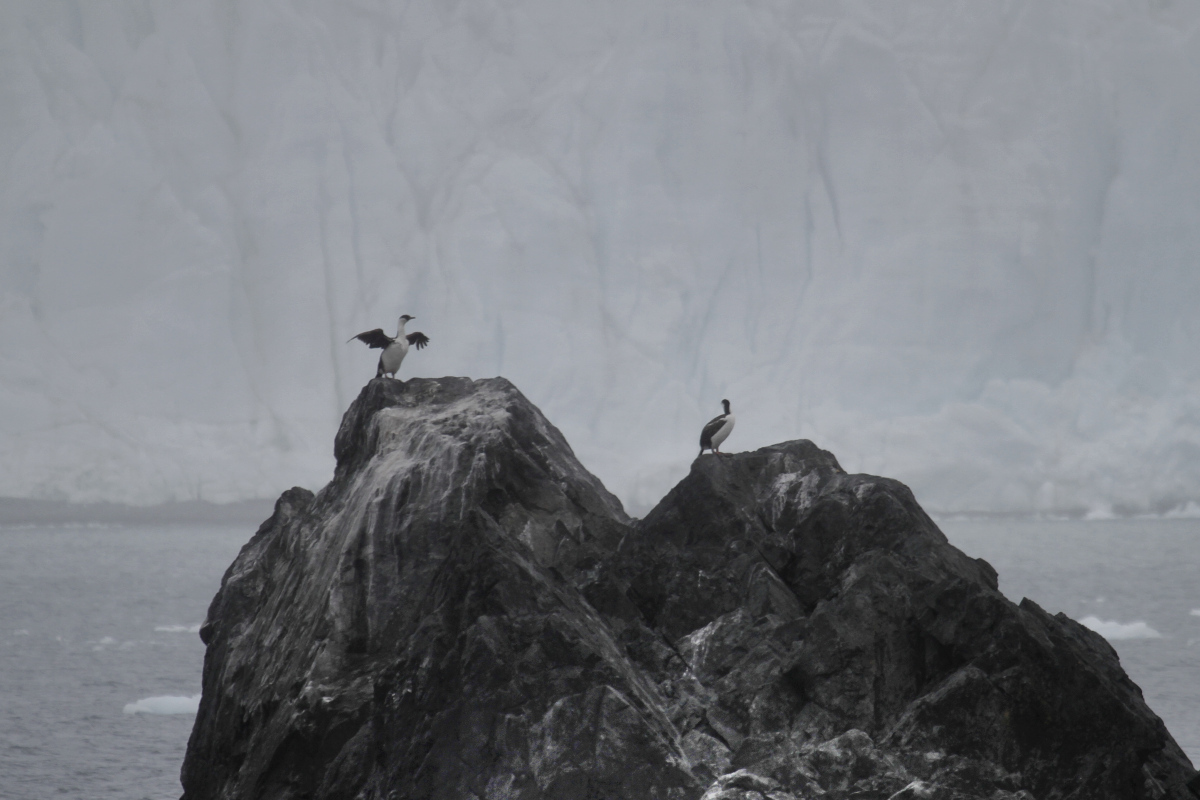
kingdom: Animalia
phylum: Chordata
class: Aves
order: Suliformes
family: Phalacrocoracidae
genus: Leucocarbo
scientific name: Leucocarbo atriceps
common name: Imperial shag
